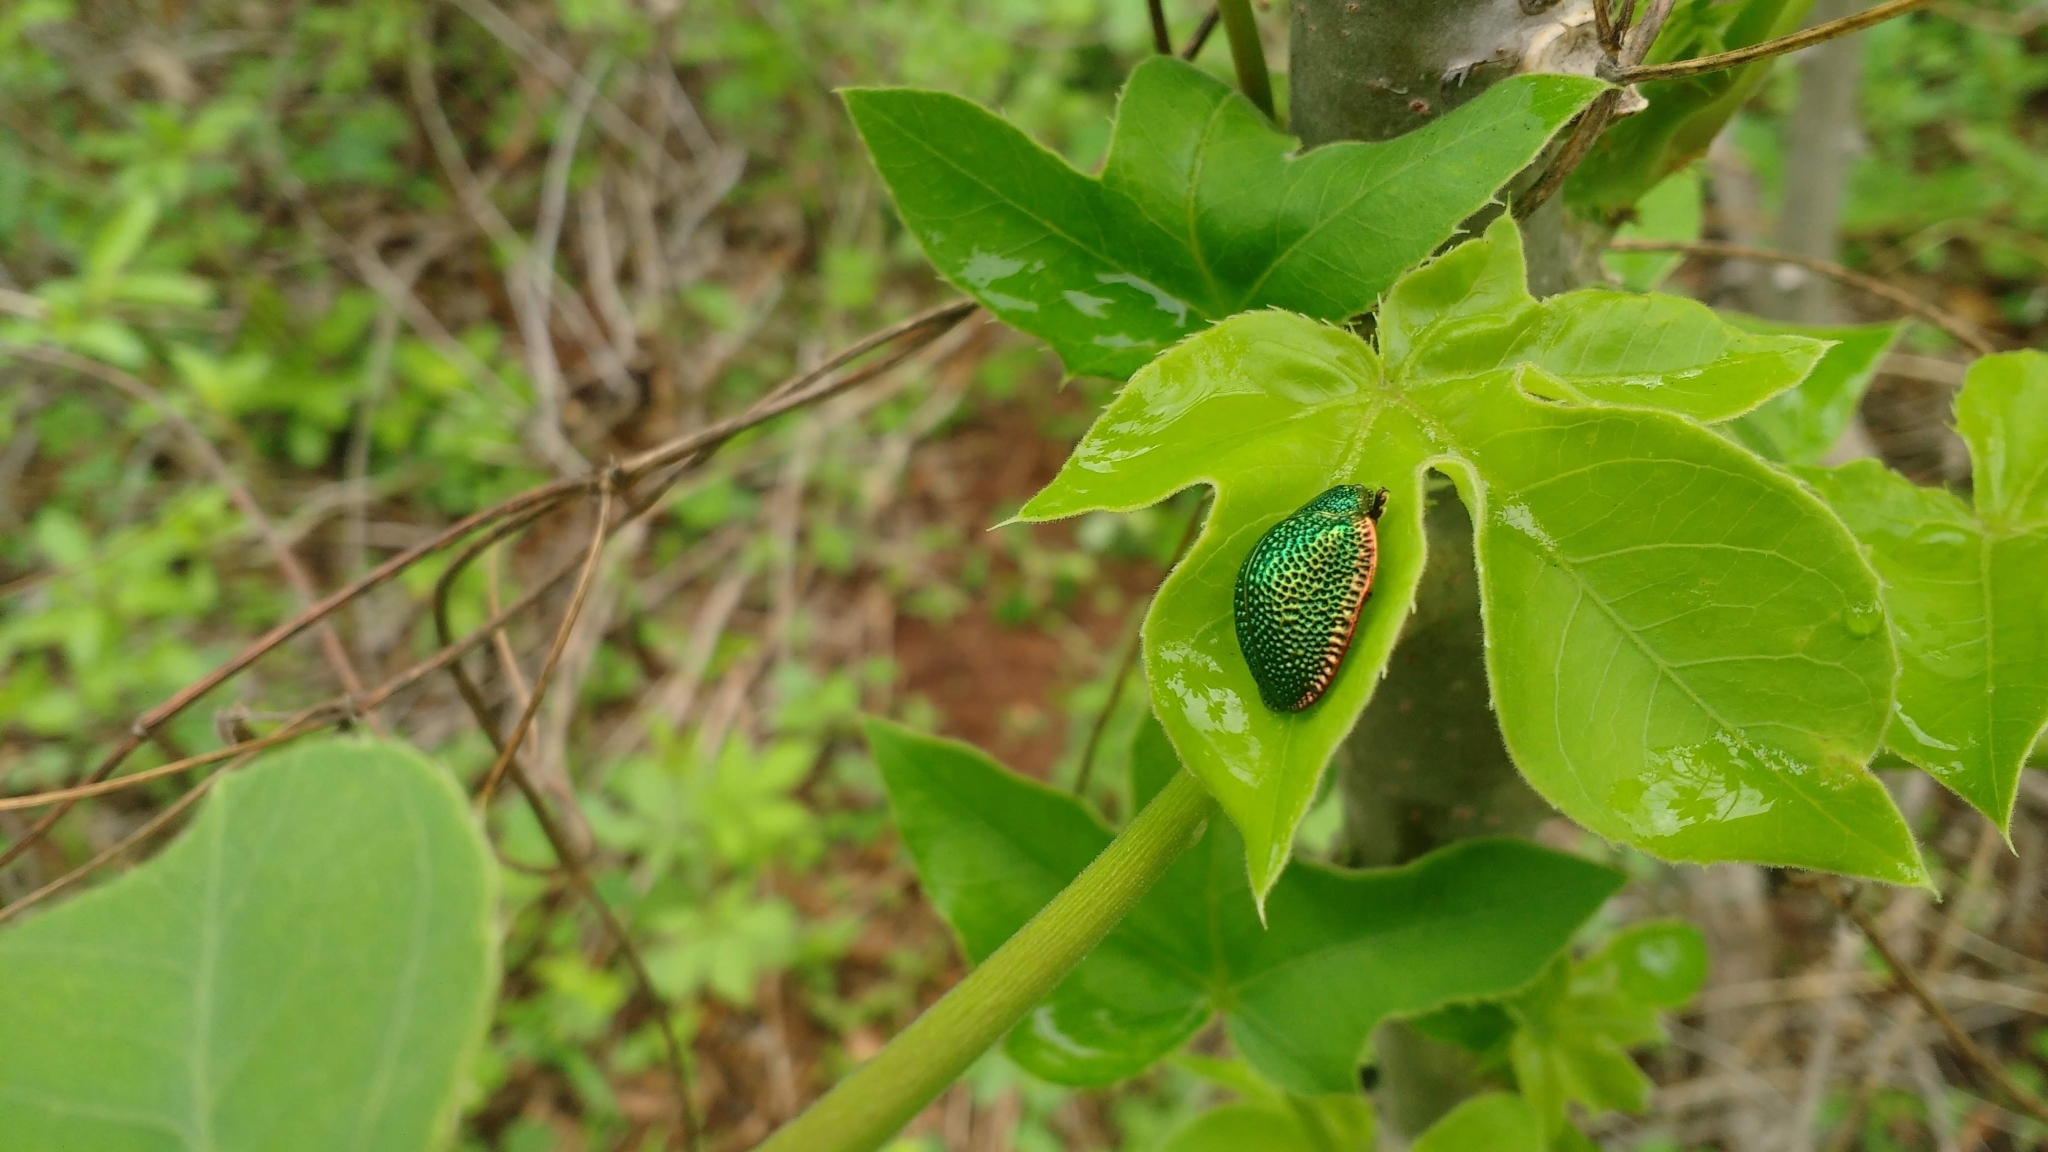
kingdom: Animalia
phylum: Arthropoda
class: Insecta
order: Coleoptera
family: Chrysomelidae
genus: Polychalca
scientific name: Polychalca punctatissima
